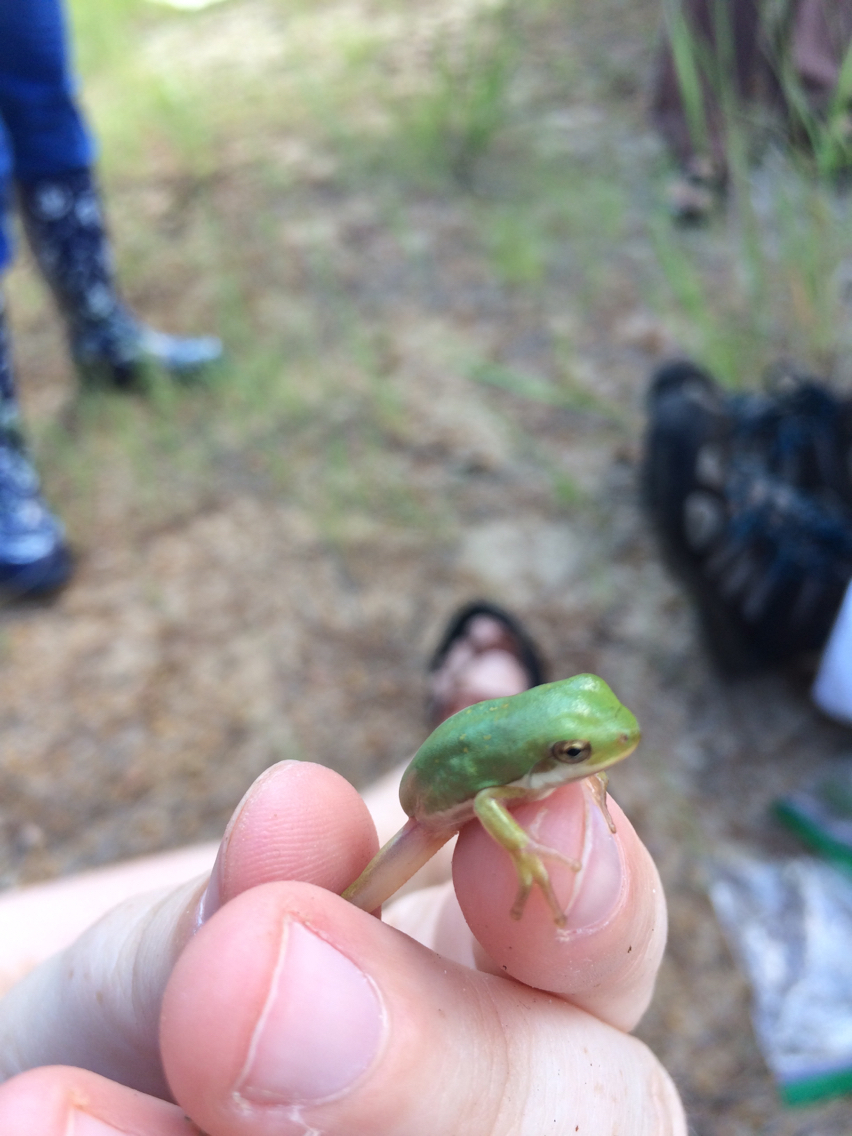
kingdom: Animalia
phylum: Chordata
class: Amphibia
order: Anura
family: Hylidae
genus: Dryophytes
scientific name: Dryophytes cinereus
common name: Green treefrog
